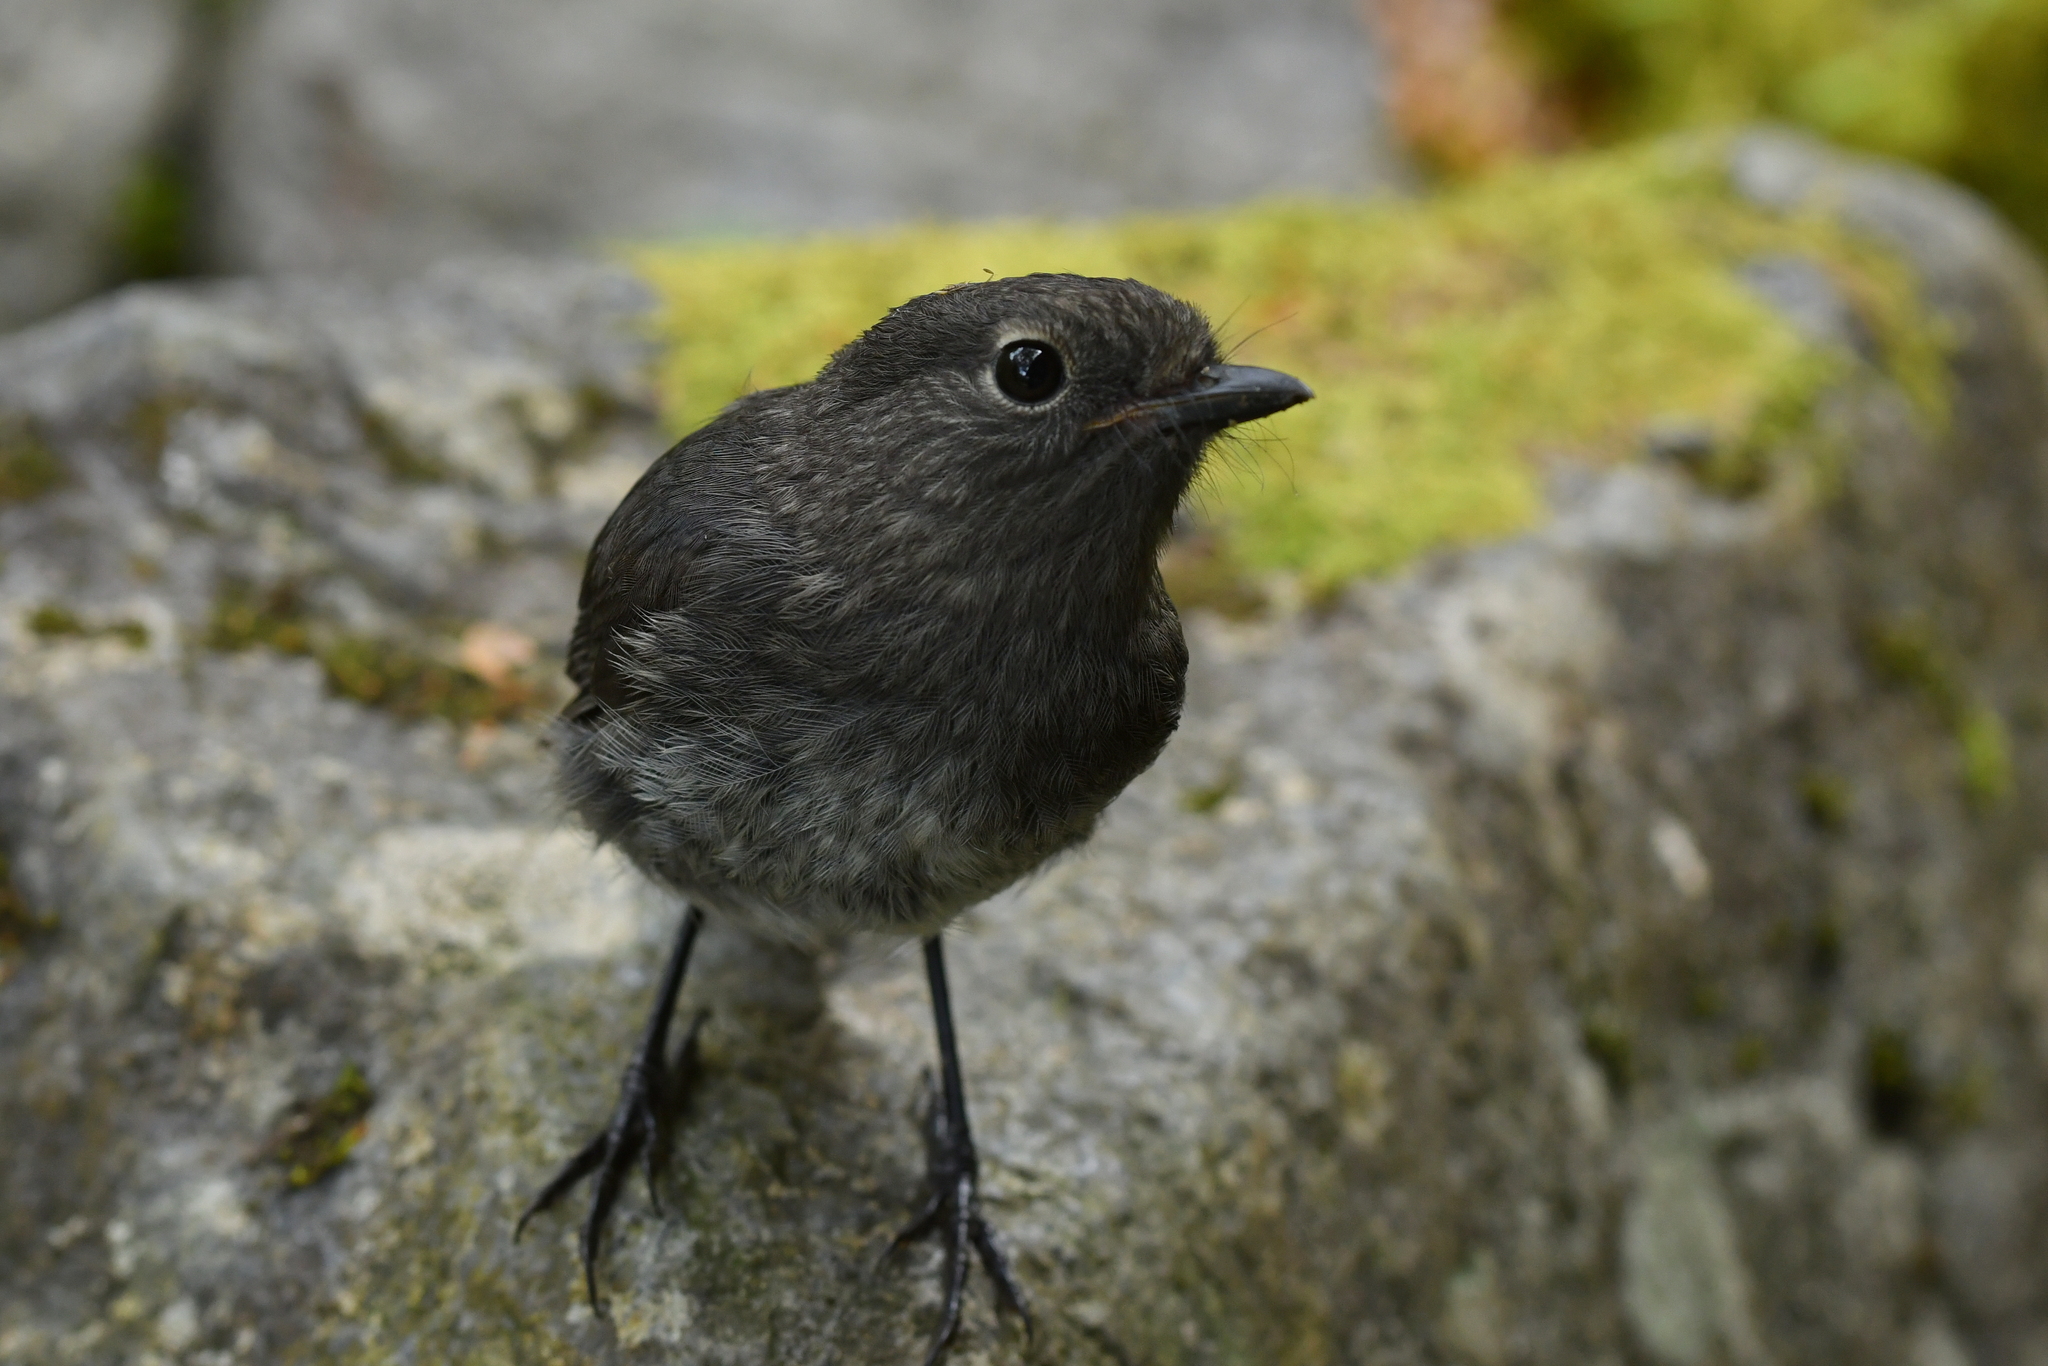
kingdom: Animalia
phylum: Chordata
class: Aves
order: Passeriformes
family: Petroicidae
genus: Petroica
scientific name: Petroica australis
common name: New zealand robin
